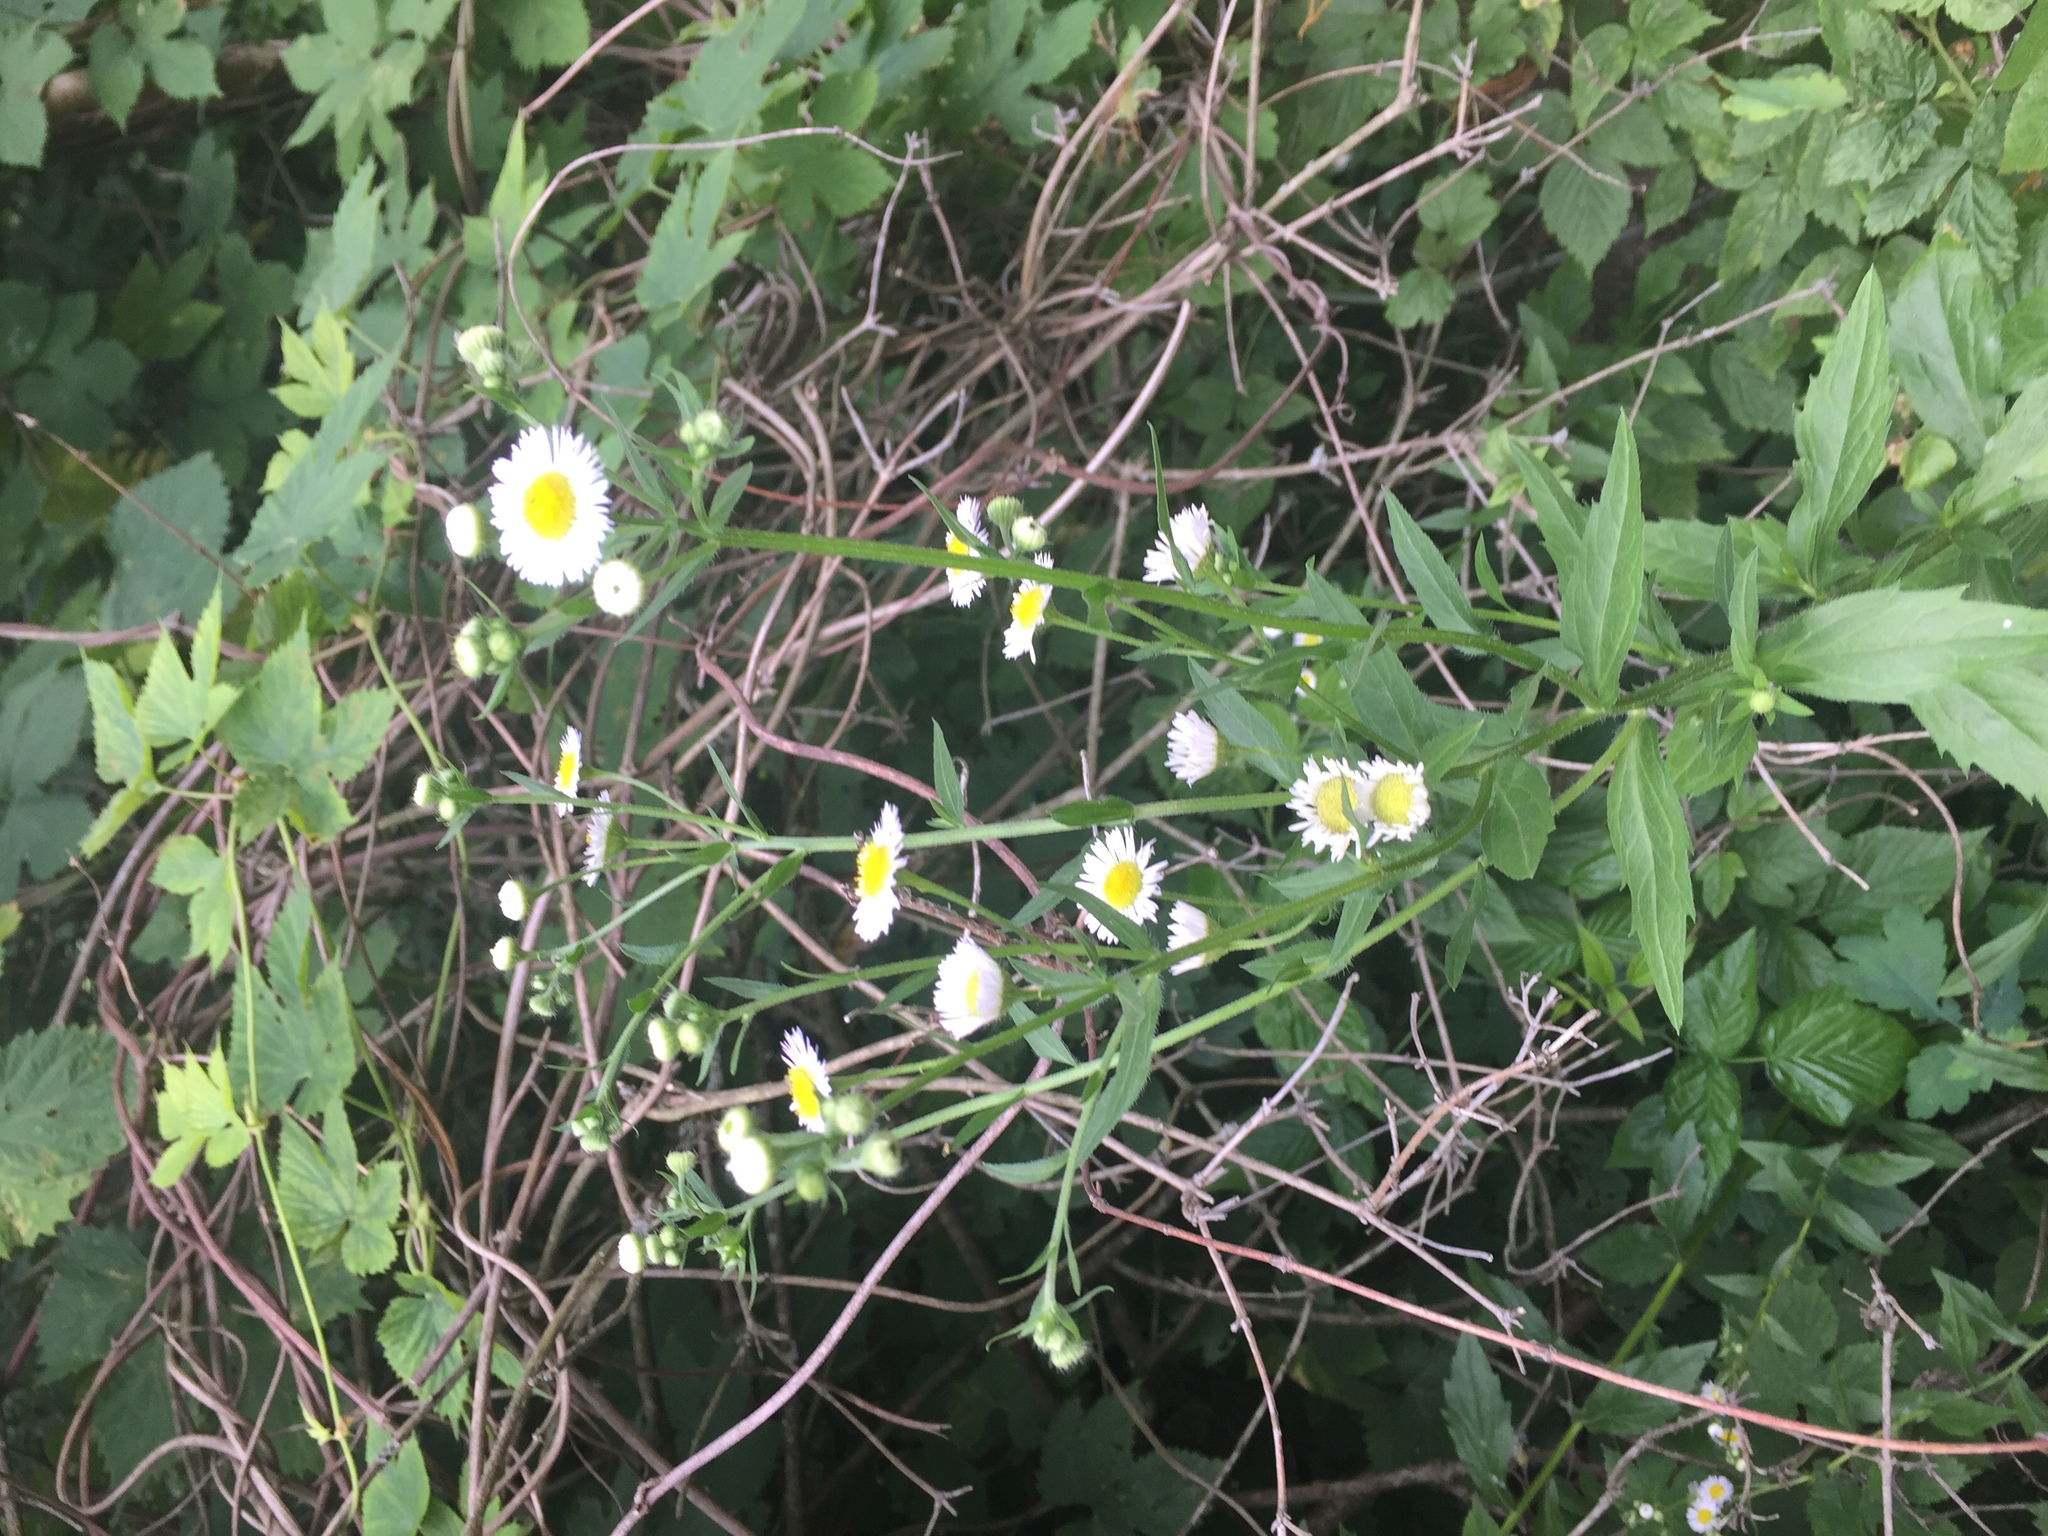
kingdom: Plantae
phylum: Tracheophyta
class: Magnoliopsida
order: Asterales
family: Asteraceae
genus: Erigeron
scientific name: Erigeron annuus
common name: Tall fleabane
